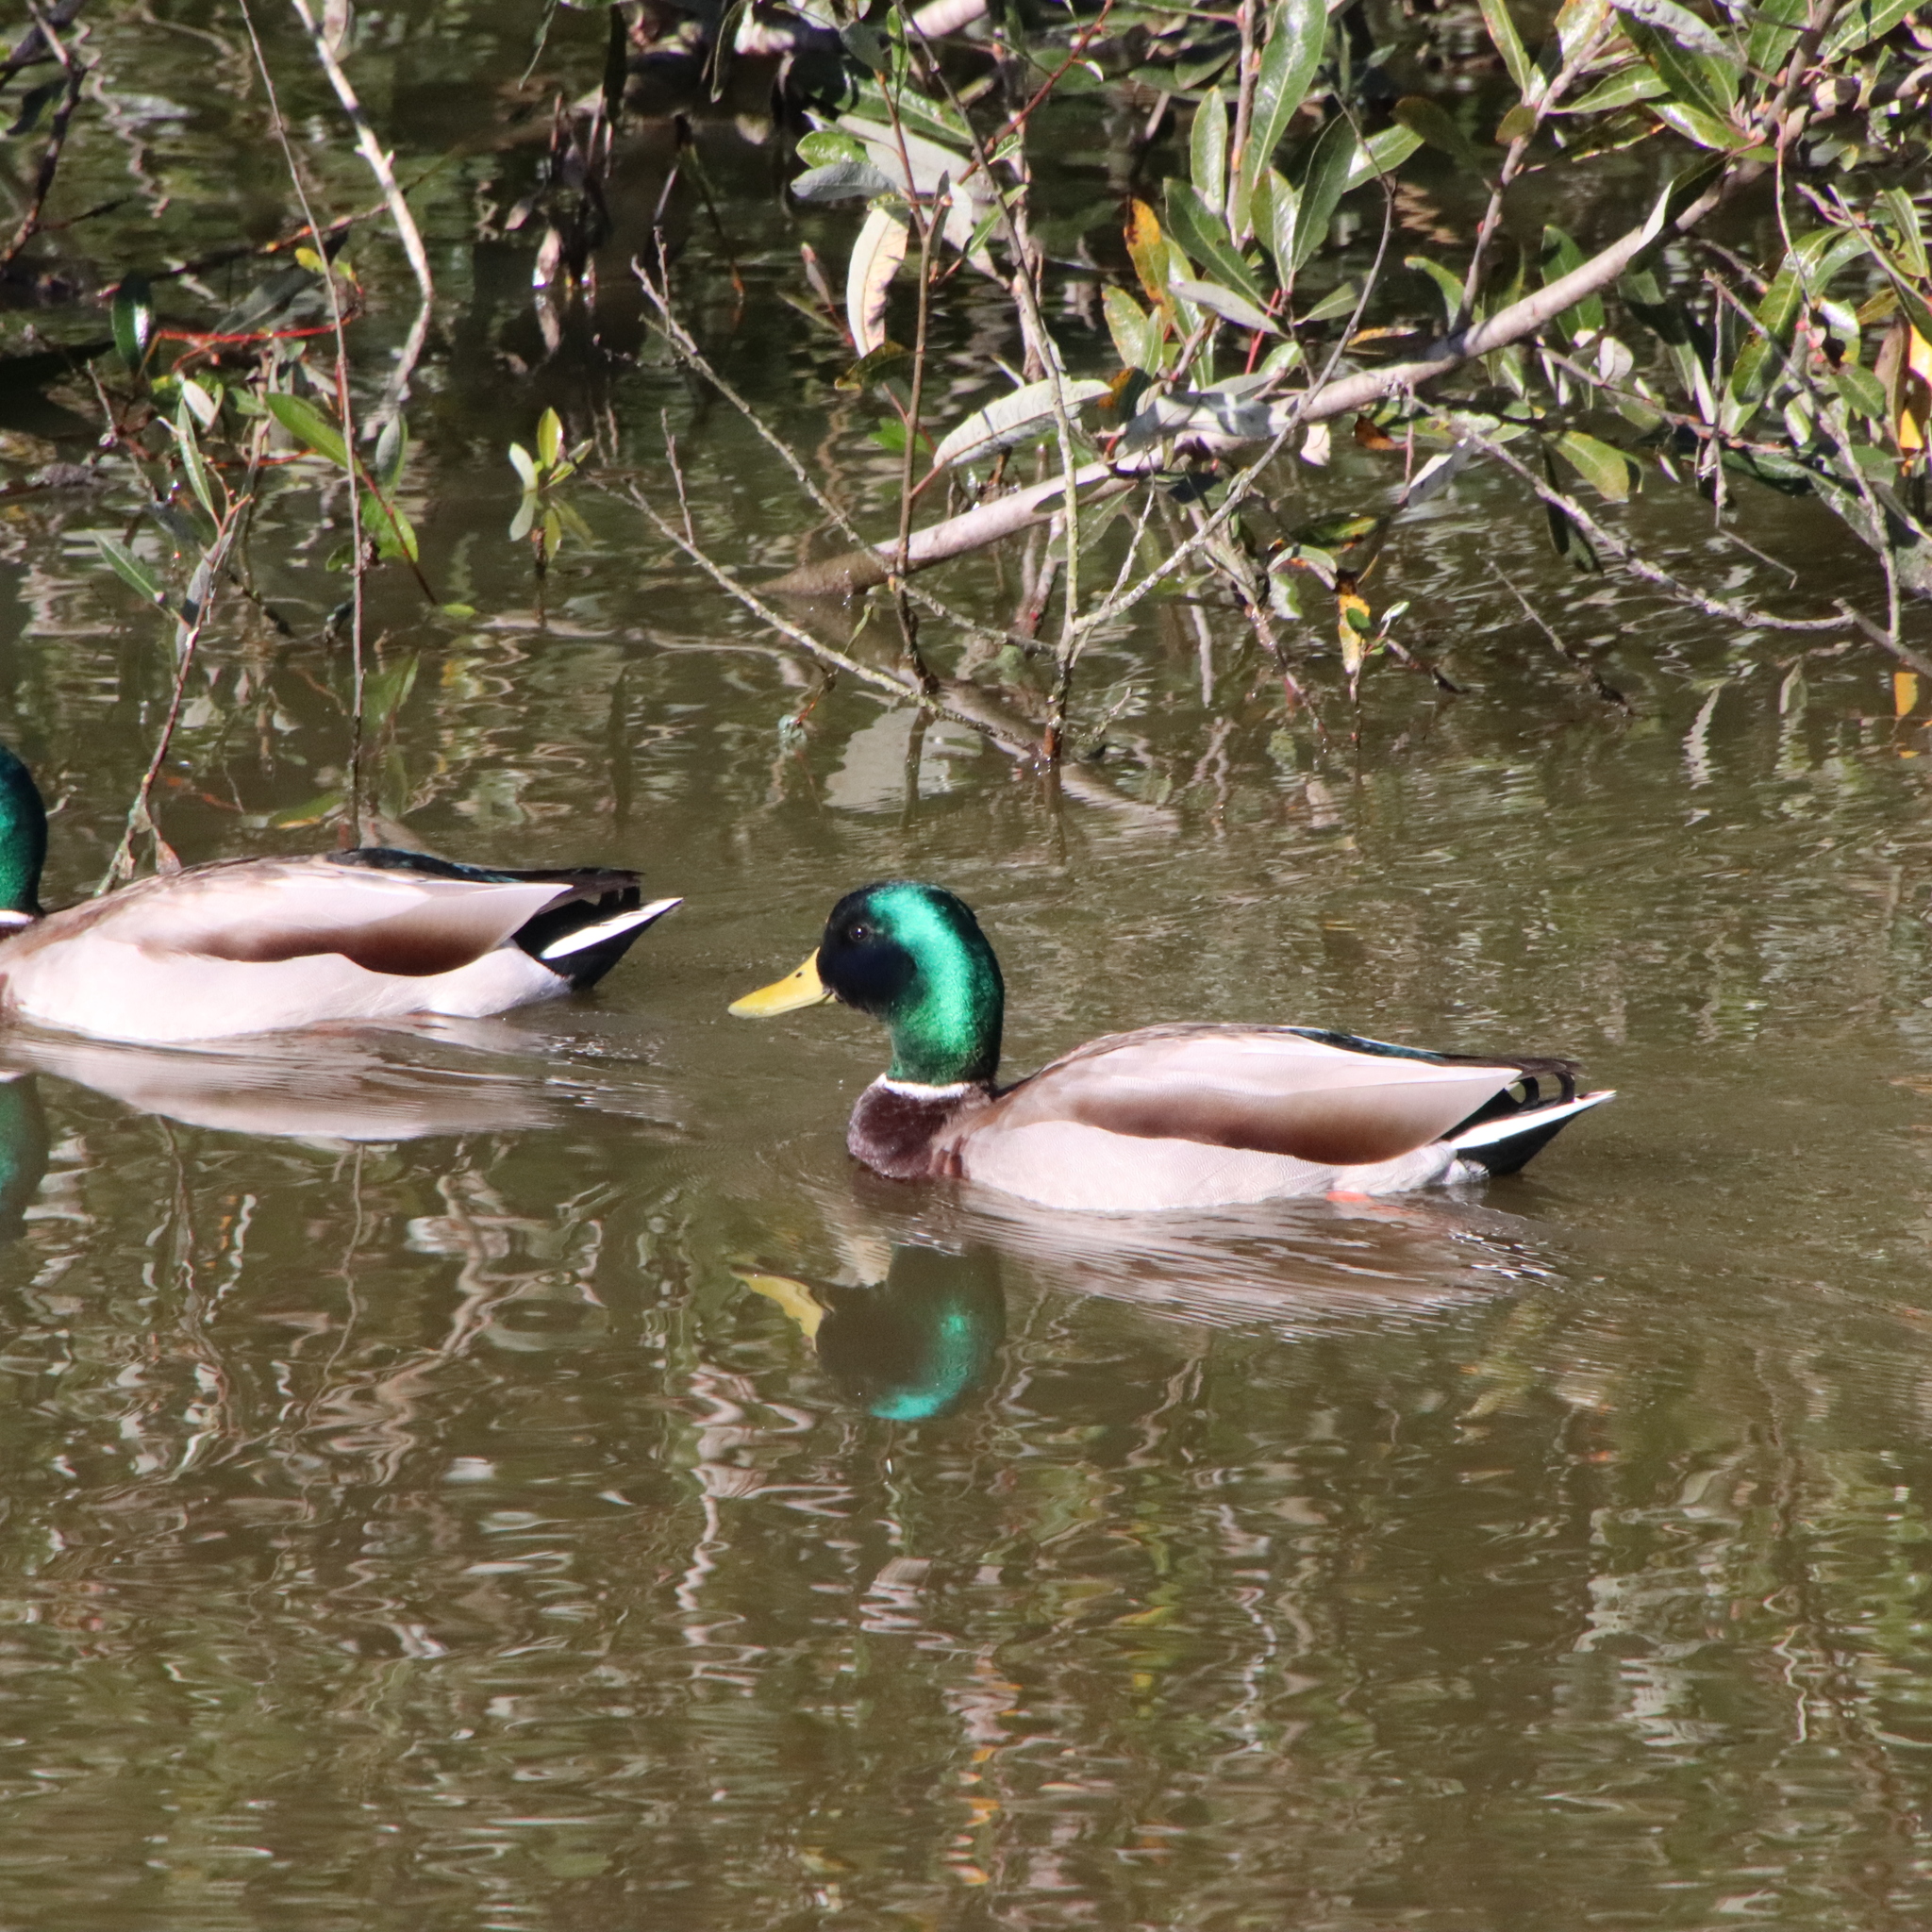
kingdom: Animalia
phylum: Chordata
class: Aves
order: Anseriformes
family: Anatidae
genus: Anas
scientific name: Anas platyrhynchos
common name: Mallard
